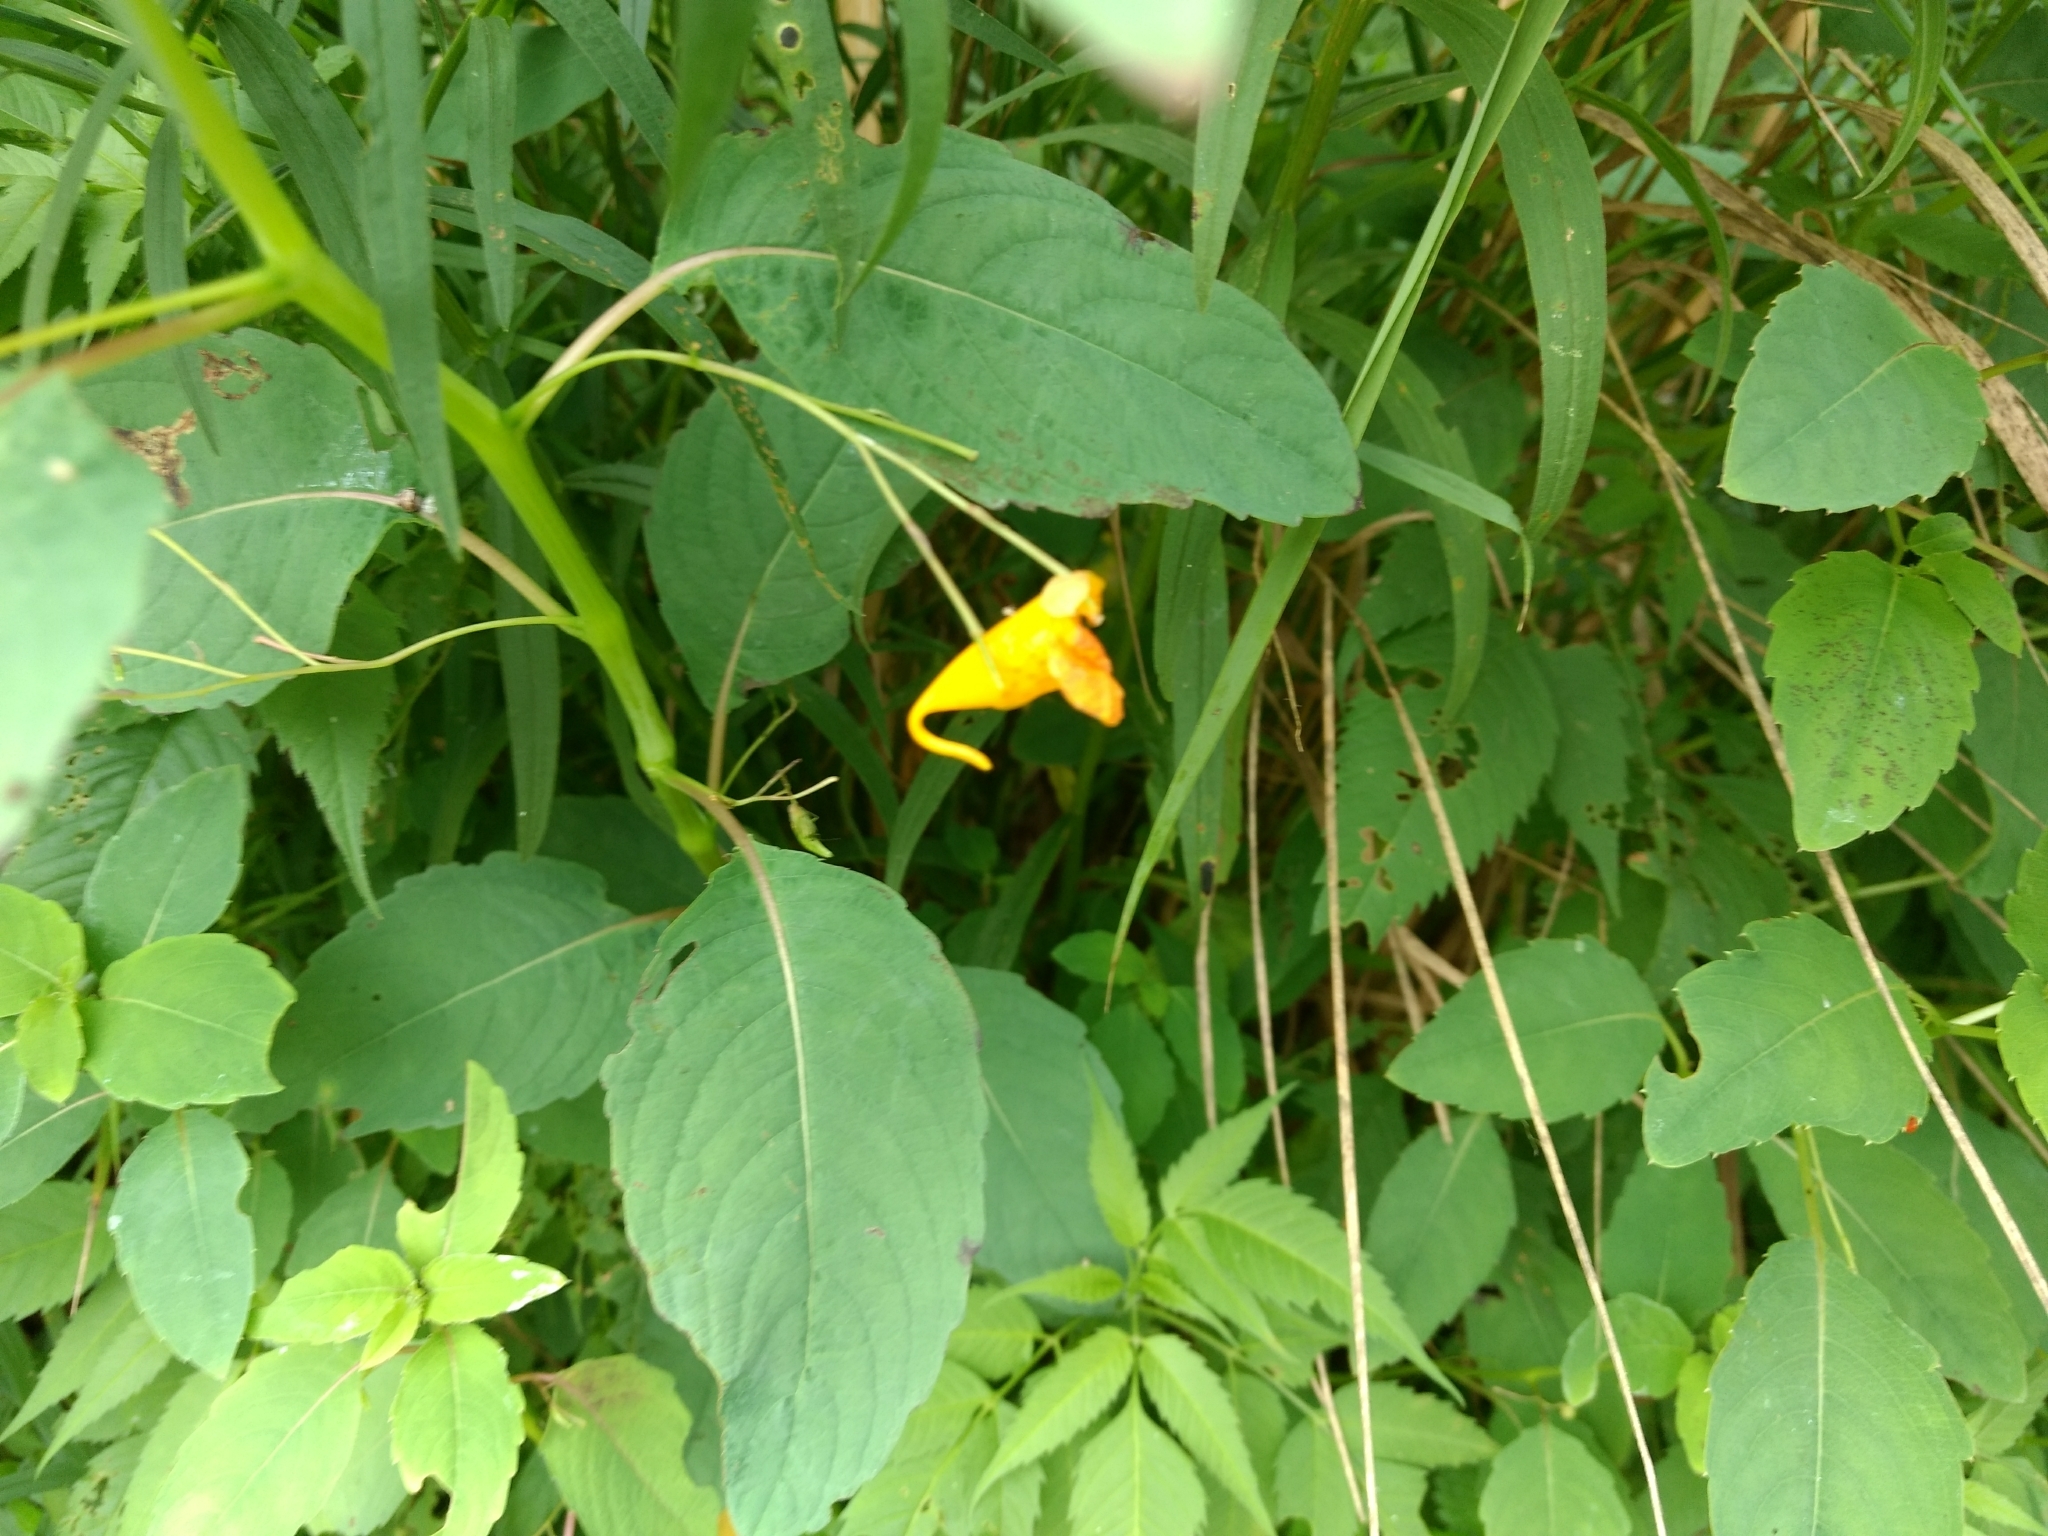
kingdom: Plantae
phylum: Tracheophyta
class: Magnoliopsida
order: Ericales
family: Balsaminaceae
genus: Impatiens
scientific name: Impatiens capensis
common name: Orange balsam
